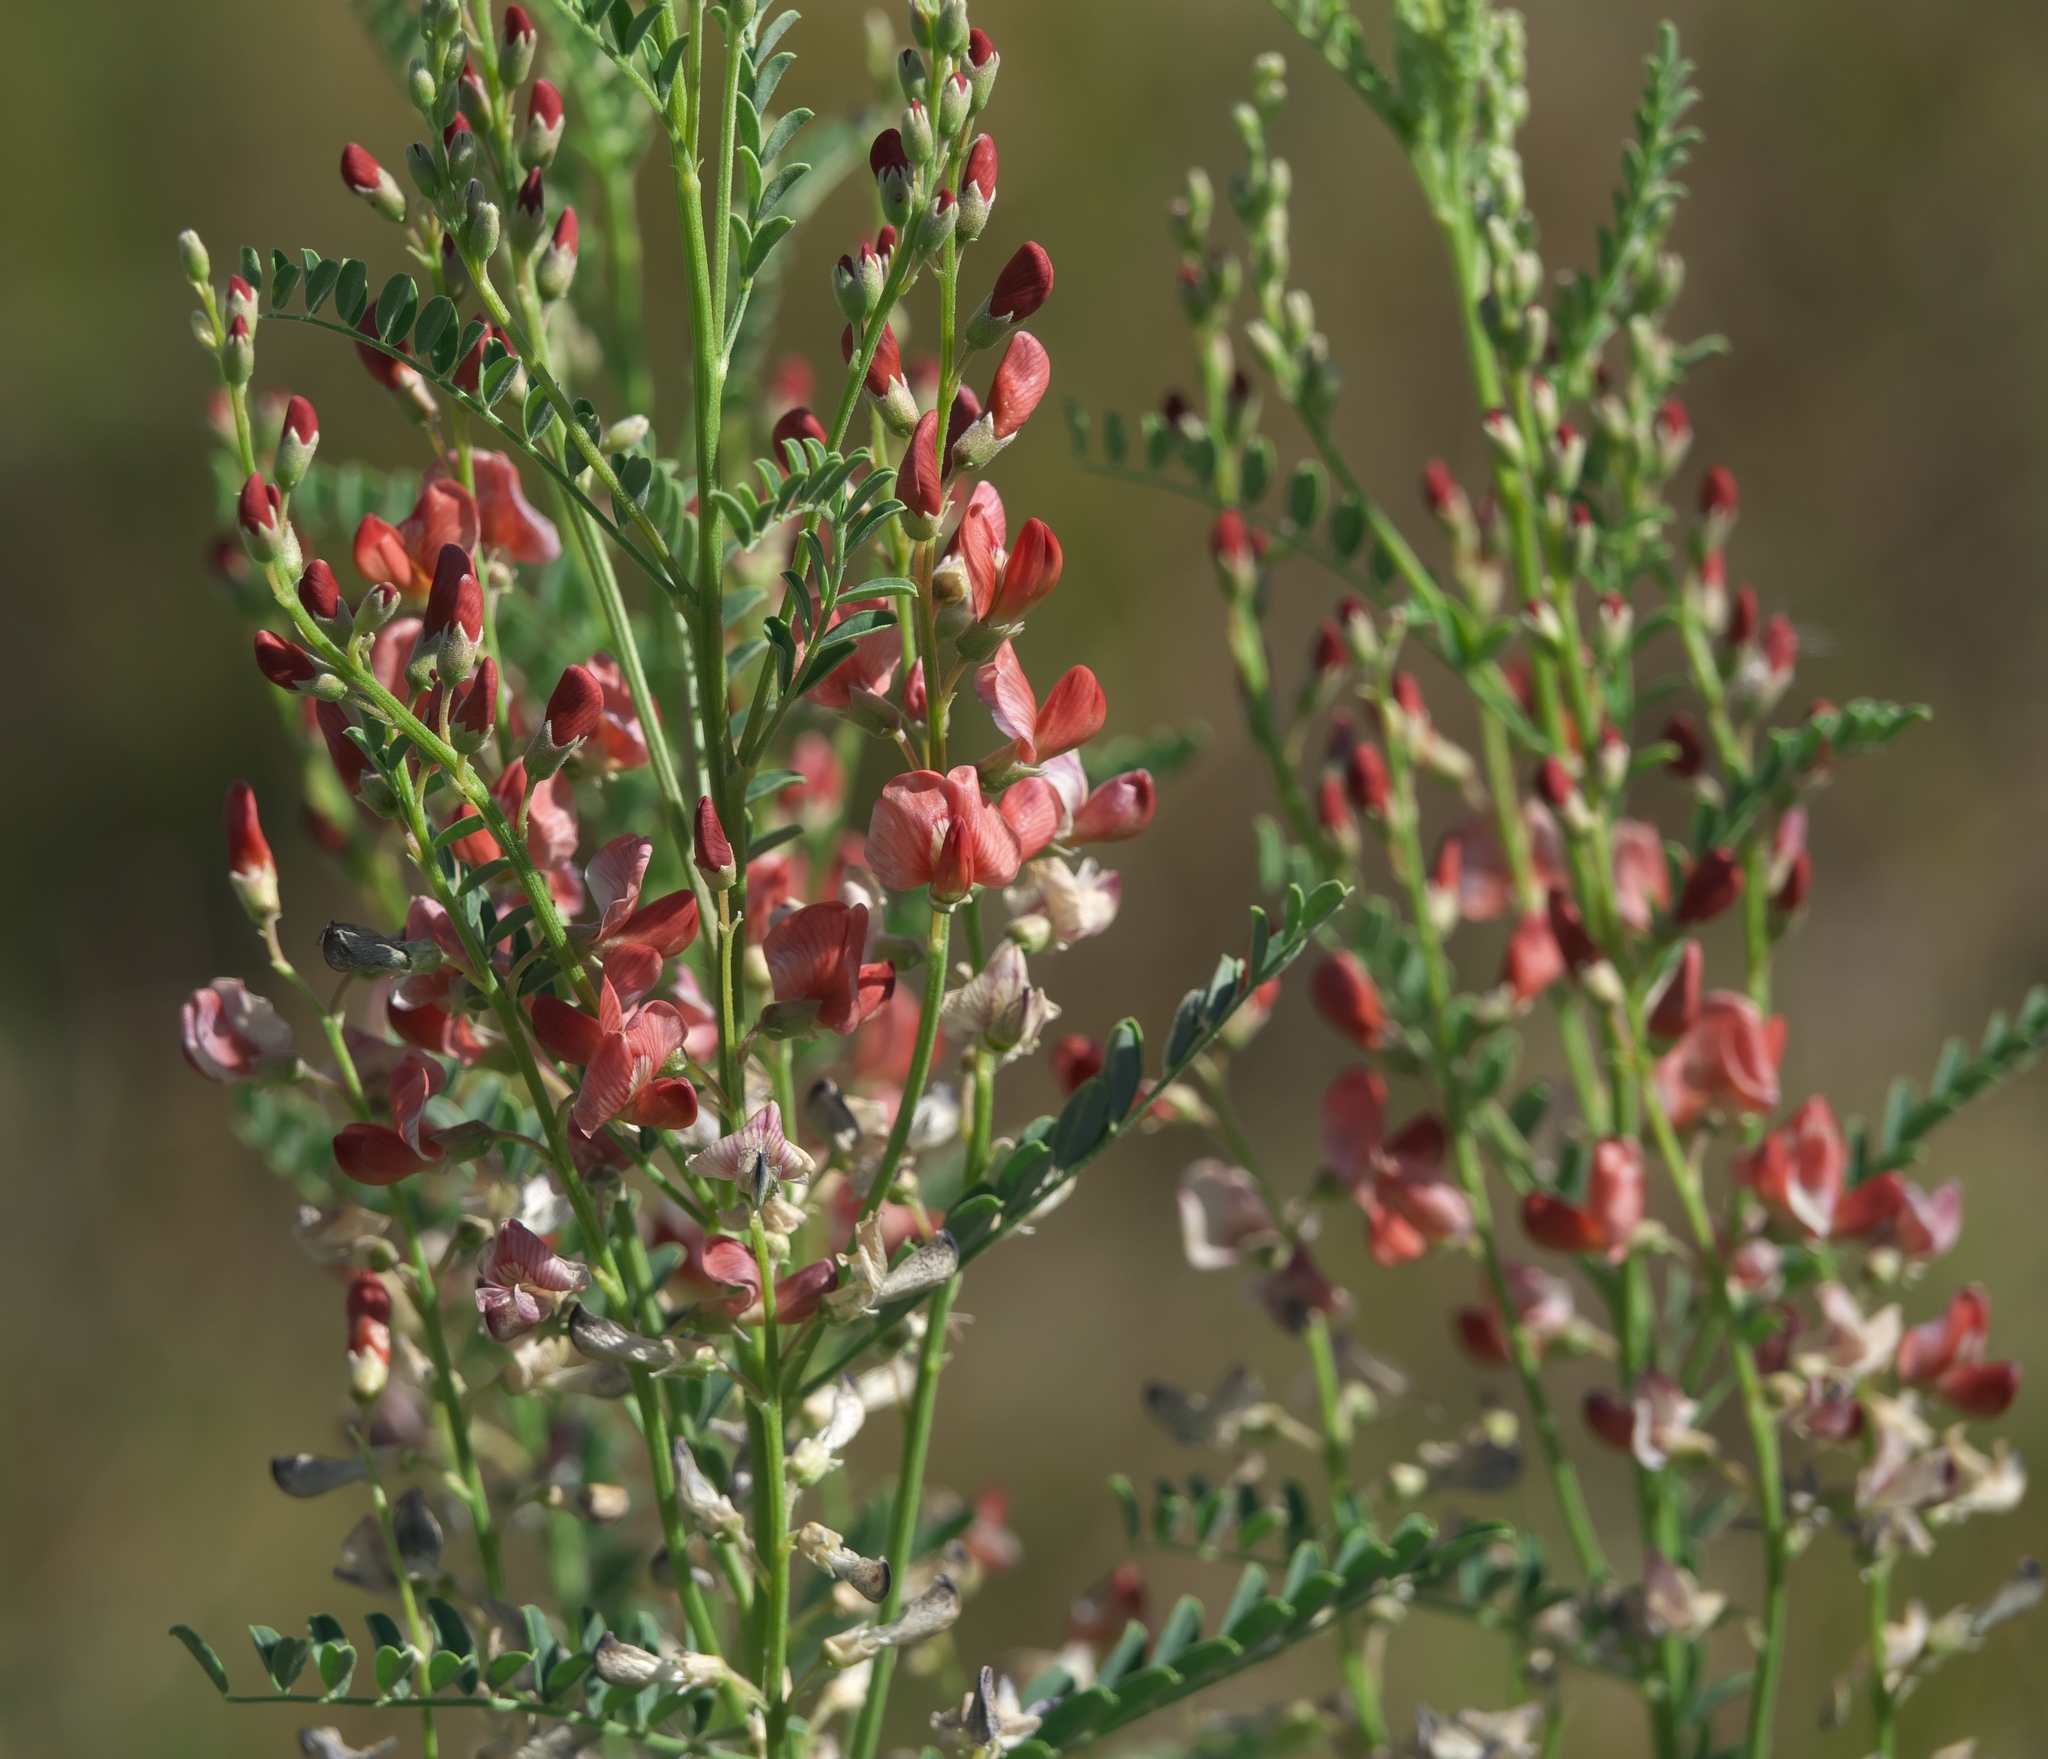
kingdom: Plantae
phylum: Tracheophyta
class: Magnoliopsida
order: Fabales
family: Fabaceae
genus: Sphaerophysa
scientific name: Sphaerophysa salsula
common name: Alkali swainsonpea
